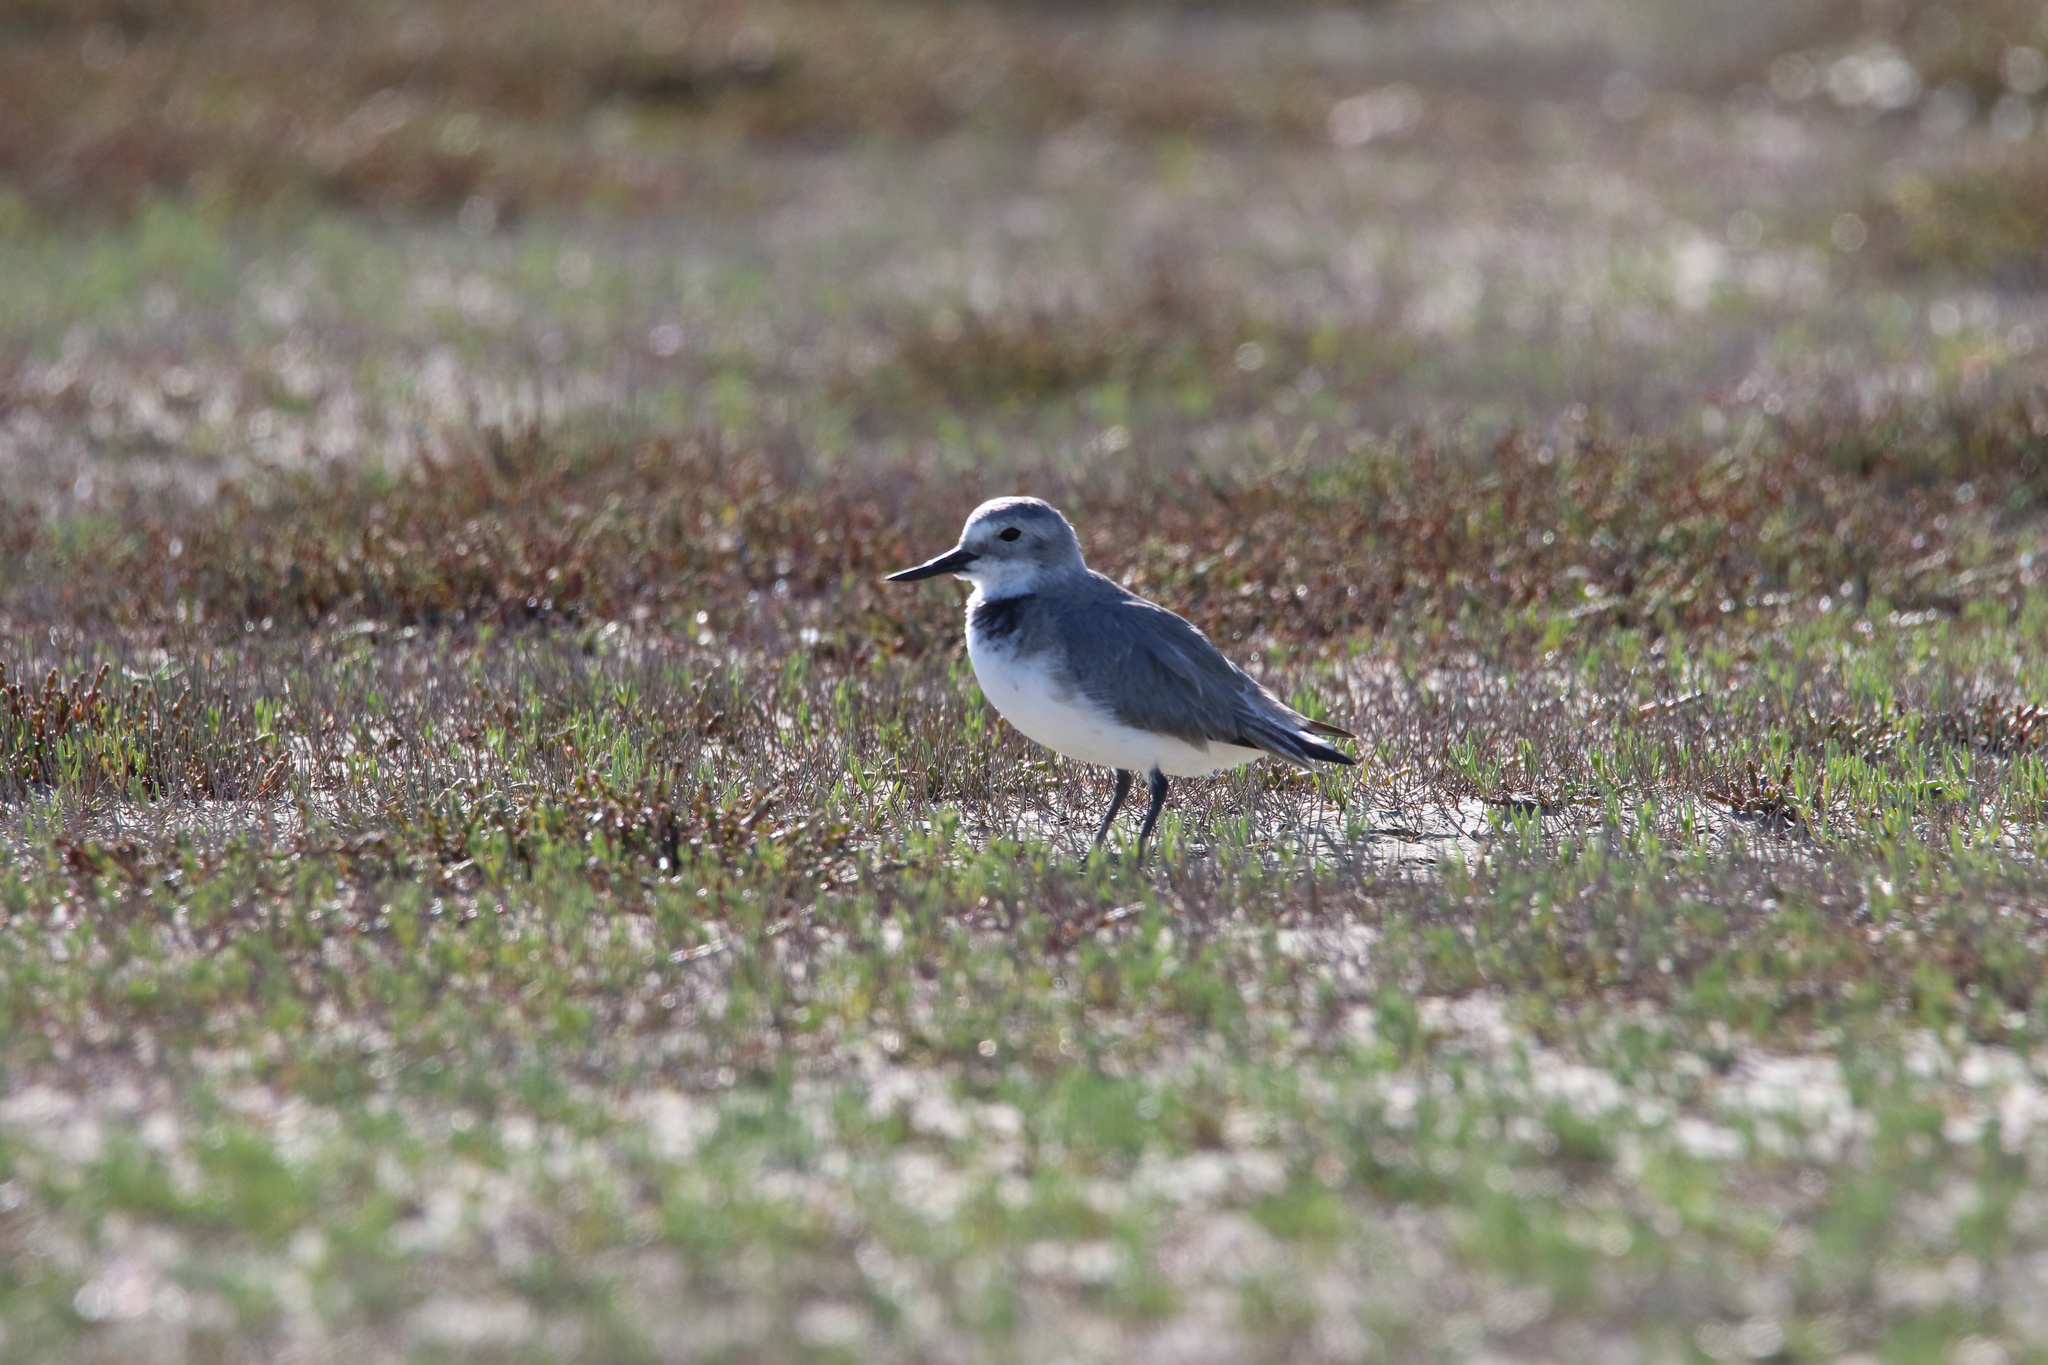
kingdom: Animalia
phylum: Chordata
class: Aves
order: Charadriiformes
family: Charadriidae
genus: Anarhynchus
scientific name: Anarhynchus frontalis
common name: Wrybill
